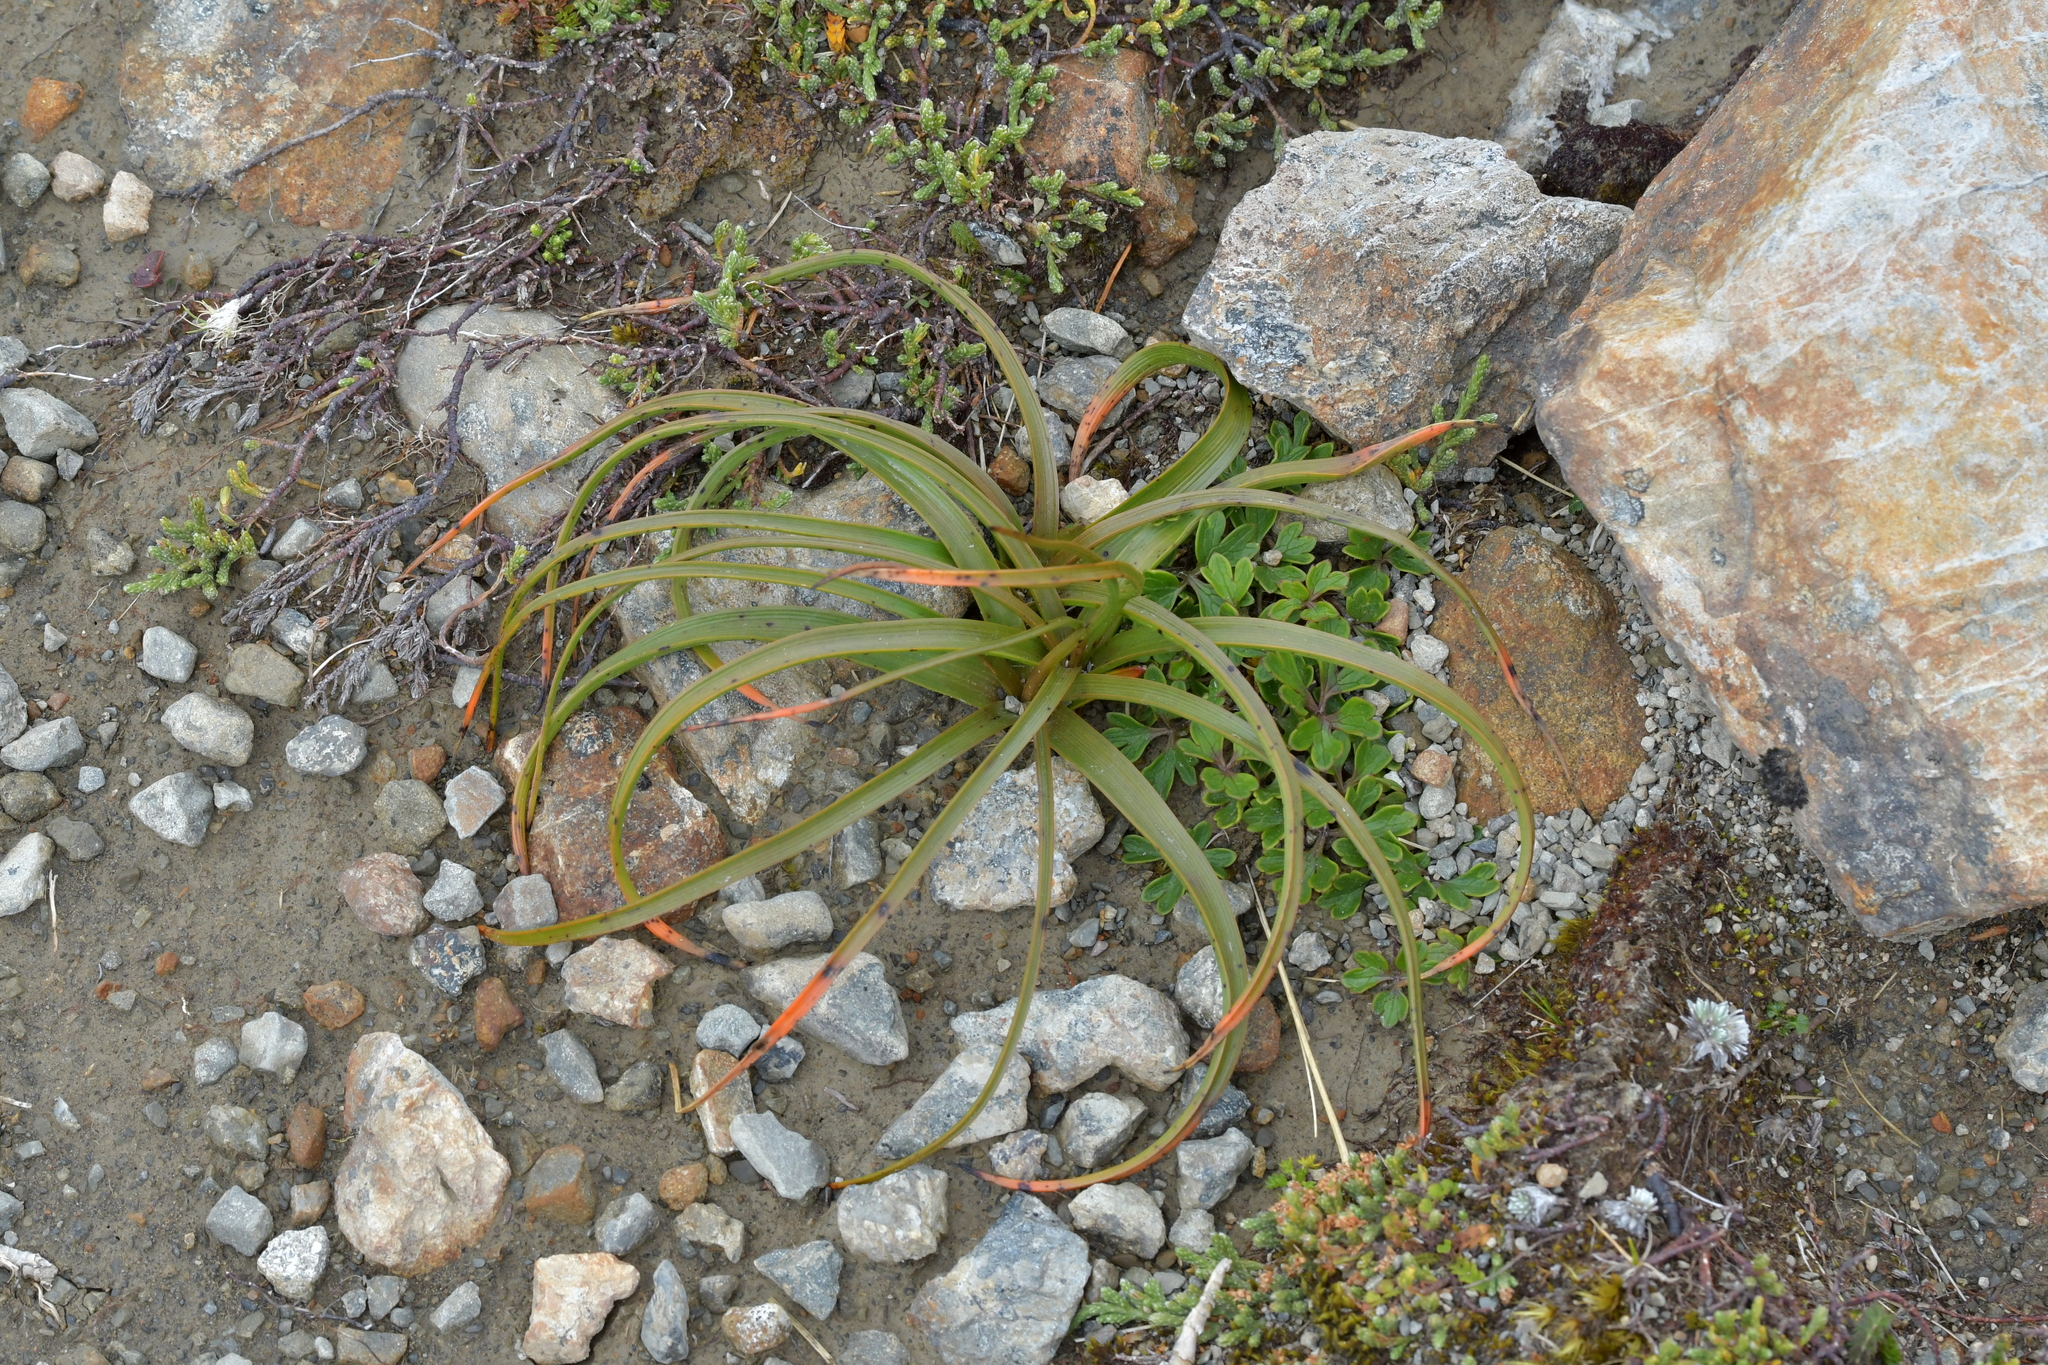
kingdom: Plantae
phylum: Tracheophyta
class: Liliopsida
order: Asparagales
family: Asphodelaceae
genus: Bulbinella
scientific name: Bulbinella hookeri
